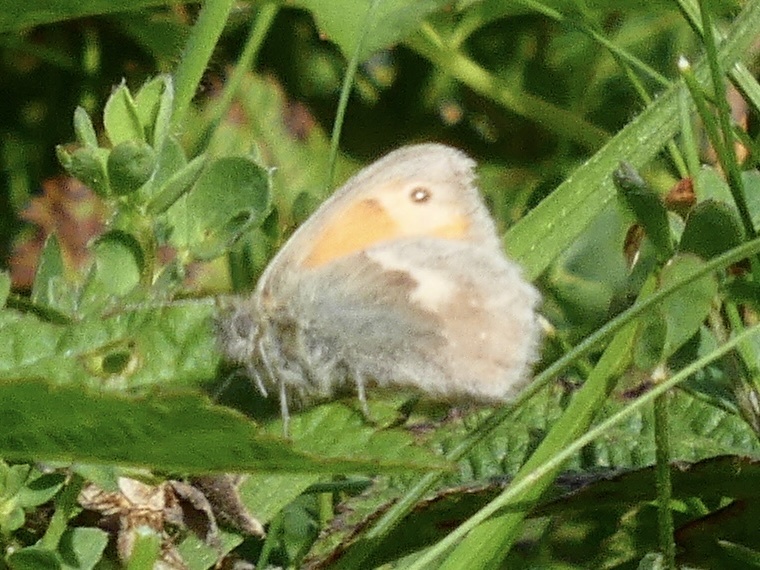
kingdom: Animalia
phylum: Arthropoda
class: Insecta
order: Lepidoptera
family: Nymphalidae
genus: Coenonympha
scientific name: Coenonympha pamphilus
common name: Small heath
